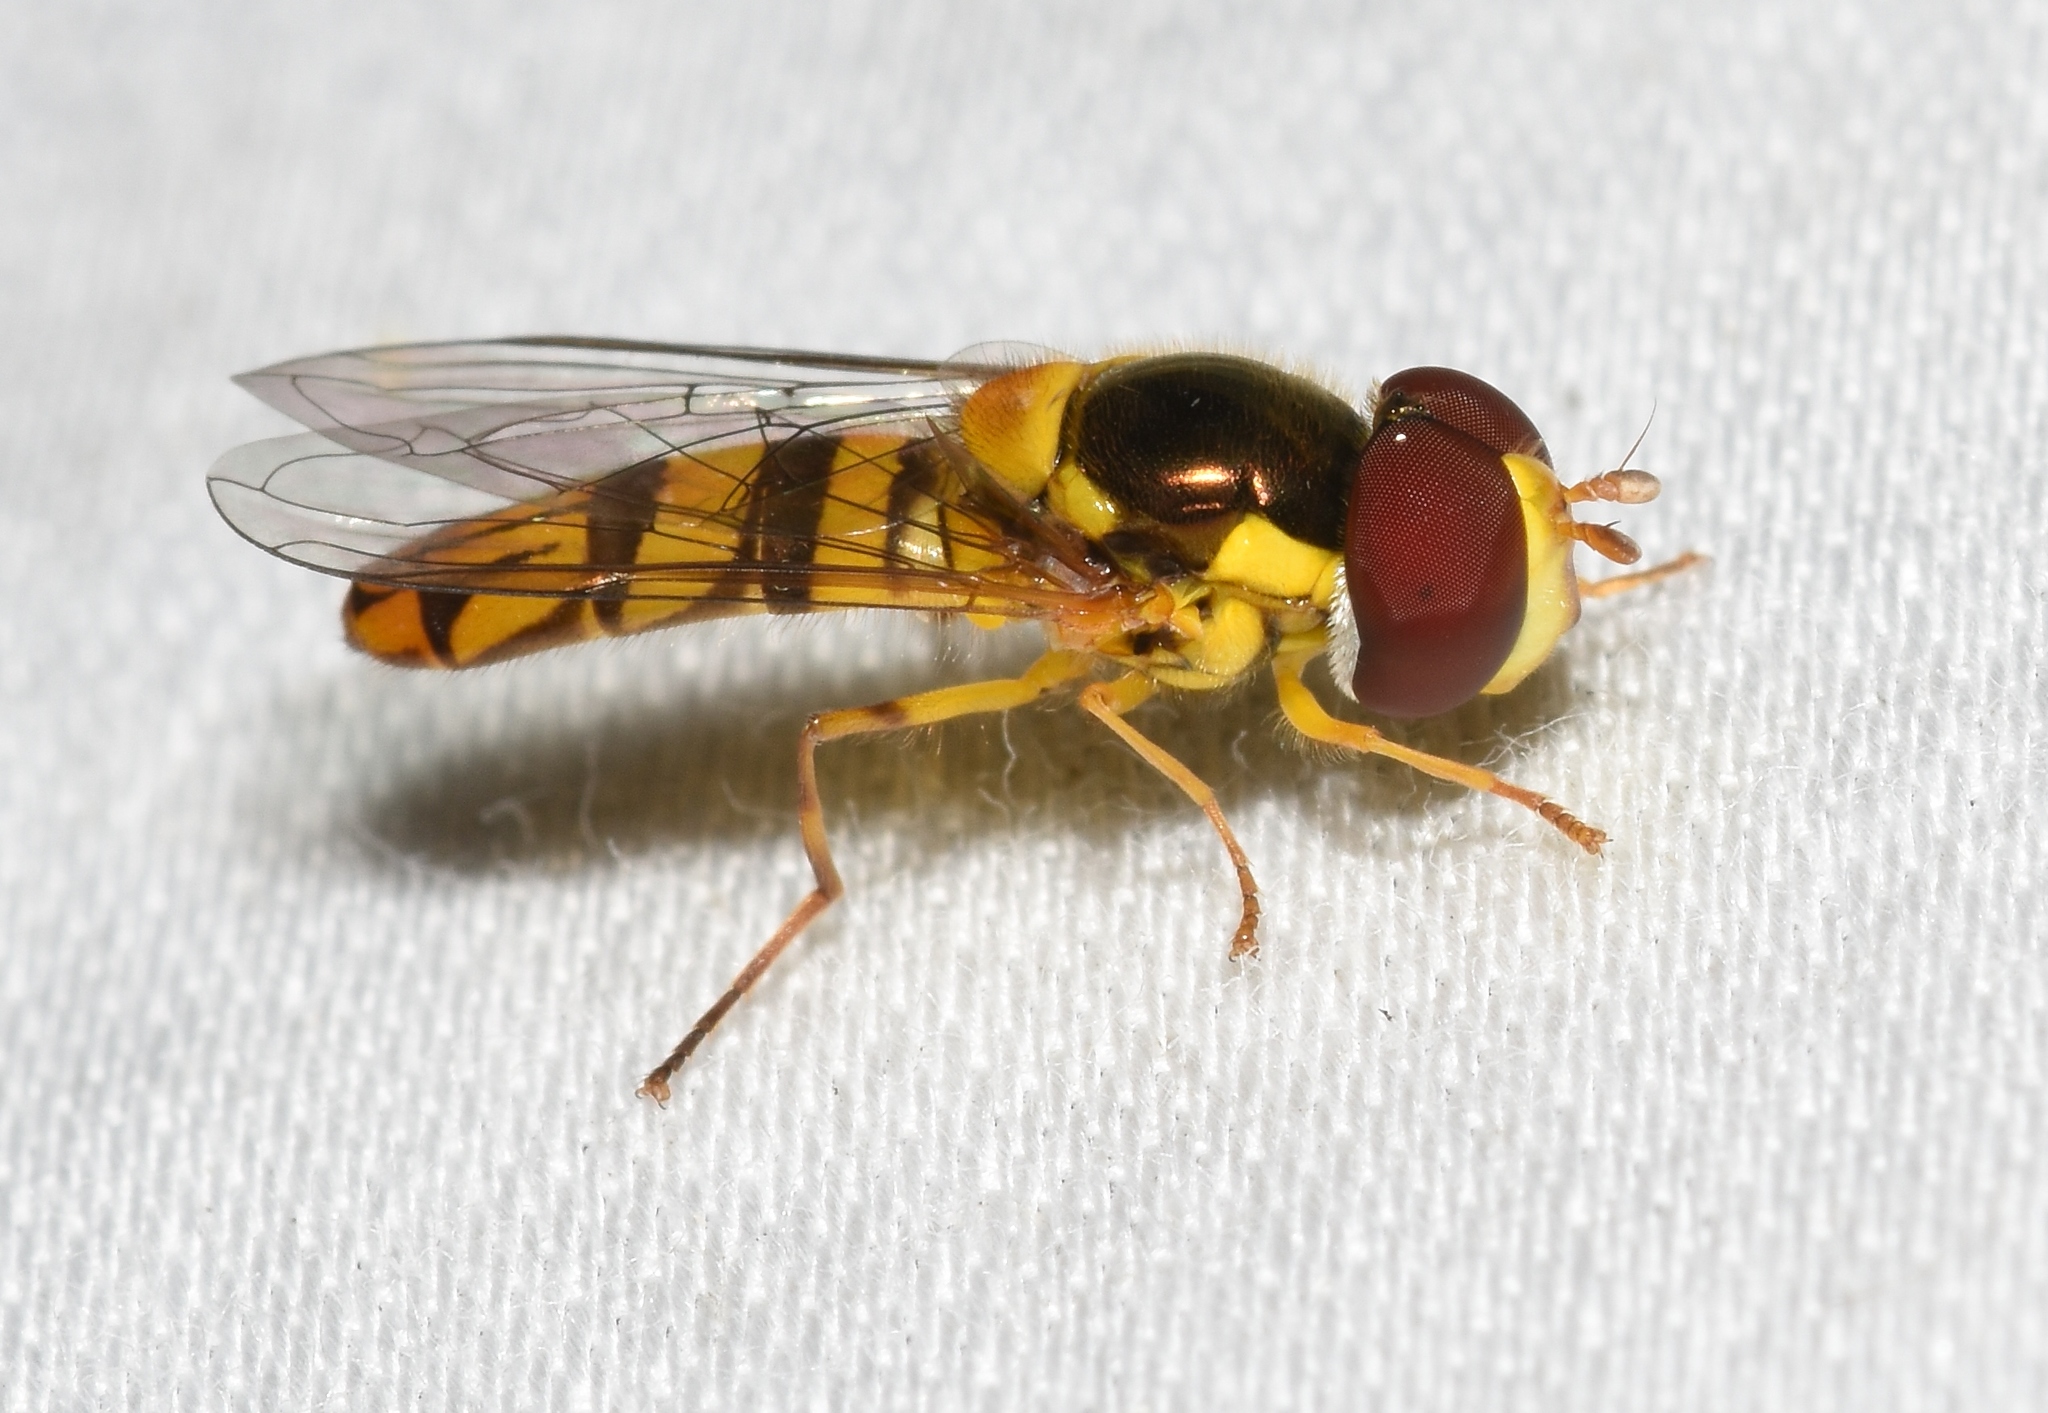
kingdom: Animalia
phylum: Arthropoda
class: Insecta
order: Diptera
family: Syrphidae
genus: Allograpta
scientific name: Allograpta obliqua
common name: Common oblique syrphid
